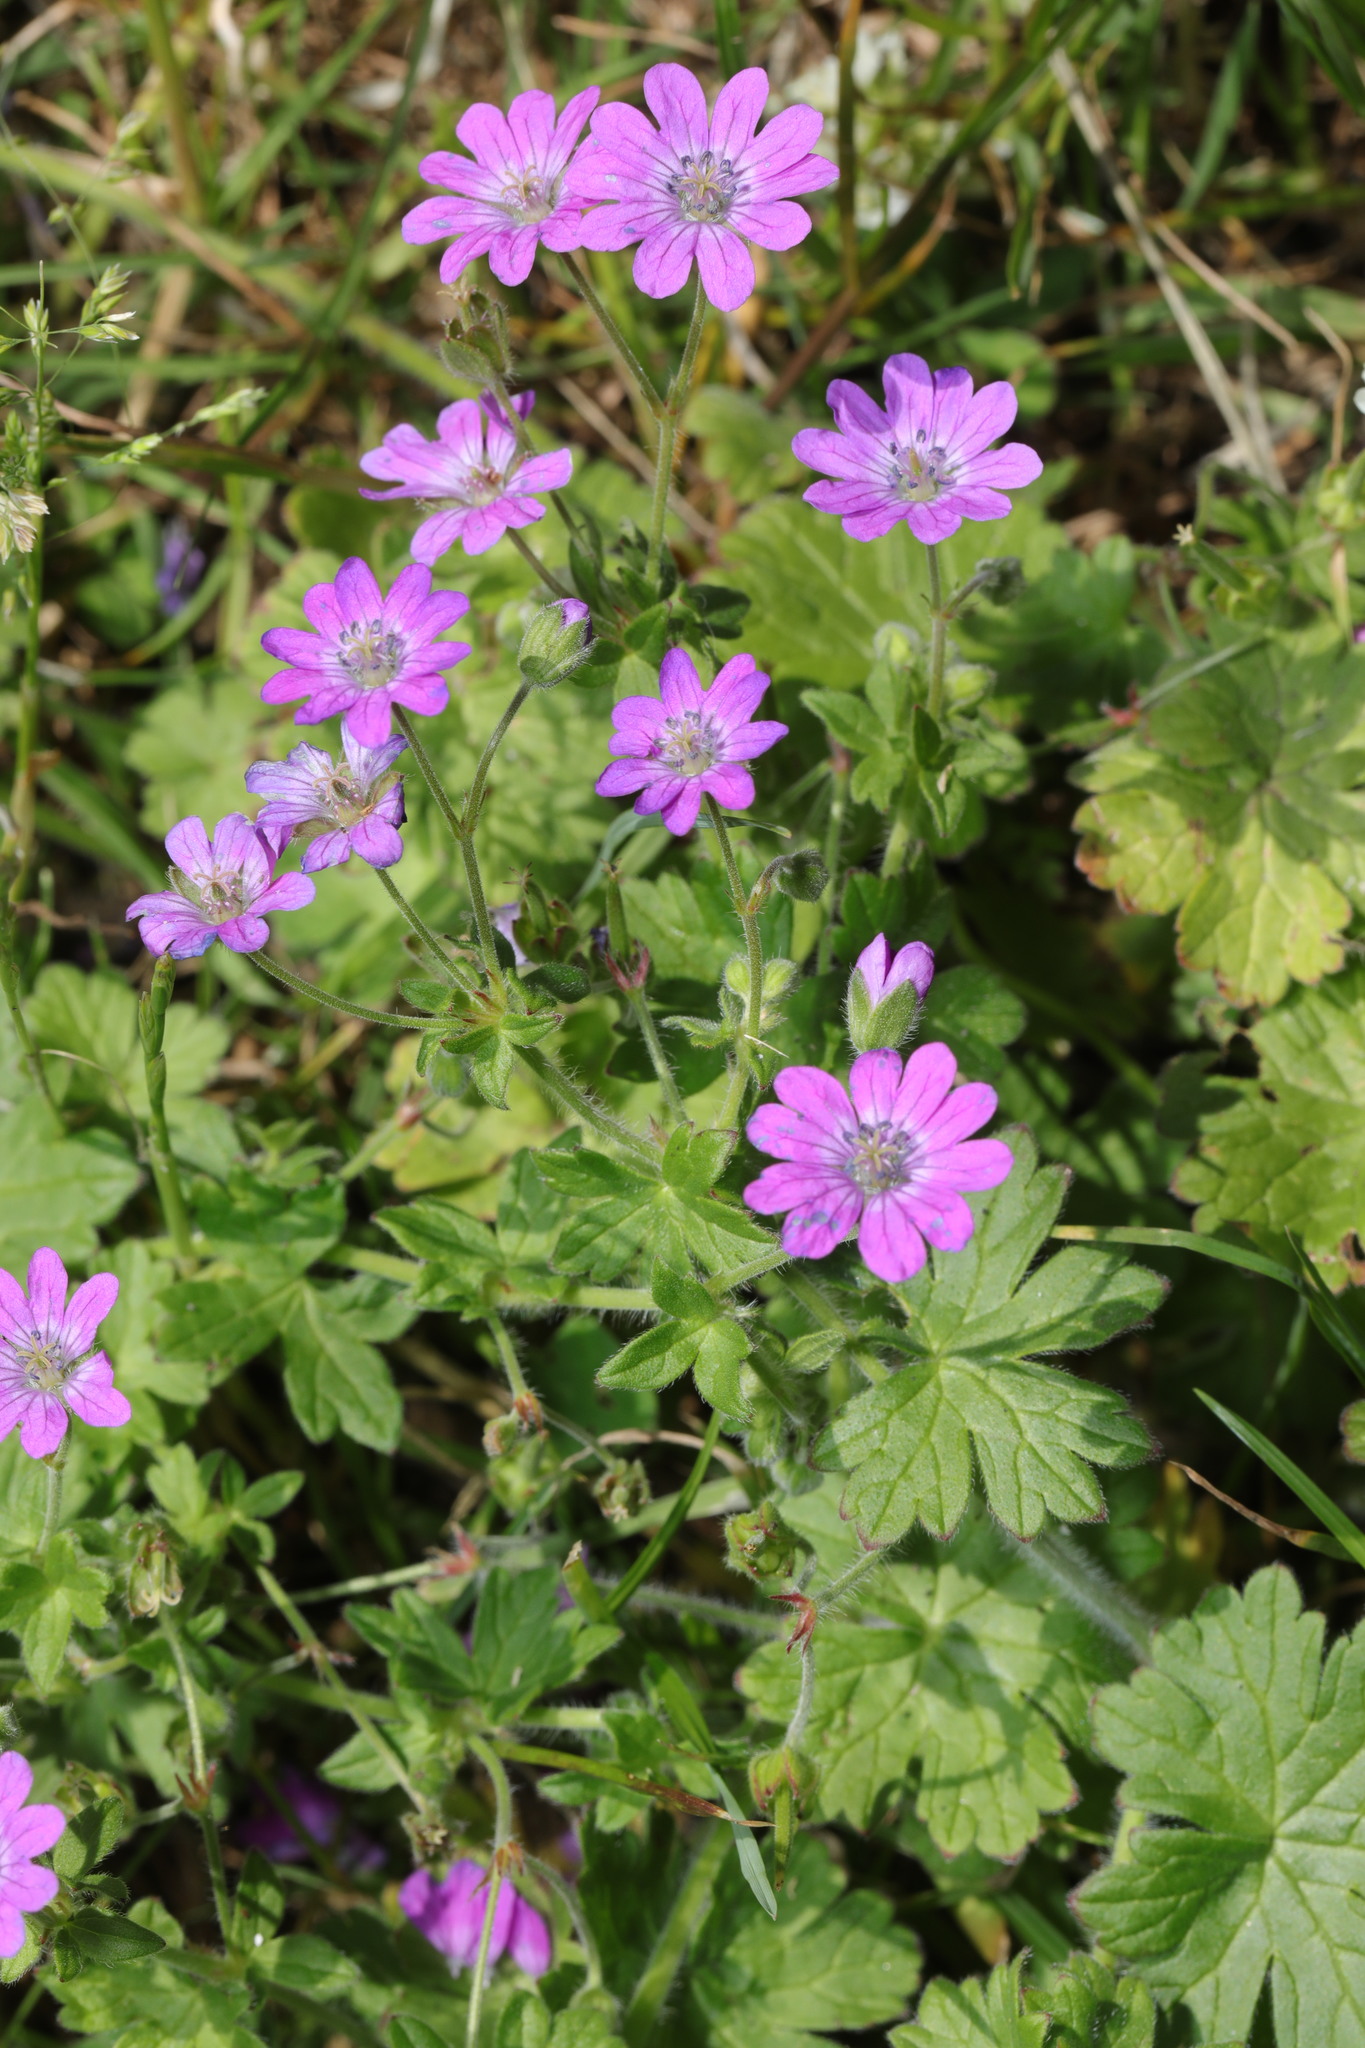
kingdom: Plantae
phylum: Tracheophyta
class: Magnoliopsida
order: Geraniales
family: Geraniaceae
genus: Geranium
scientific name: Geranium pyrenaicum
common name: Hedgerow crane's-bill
